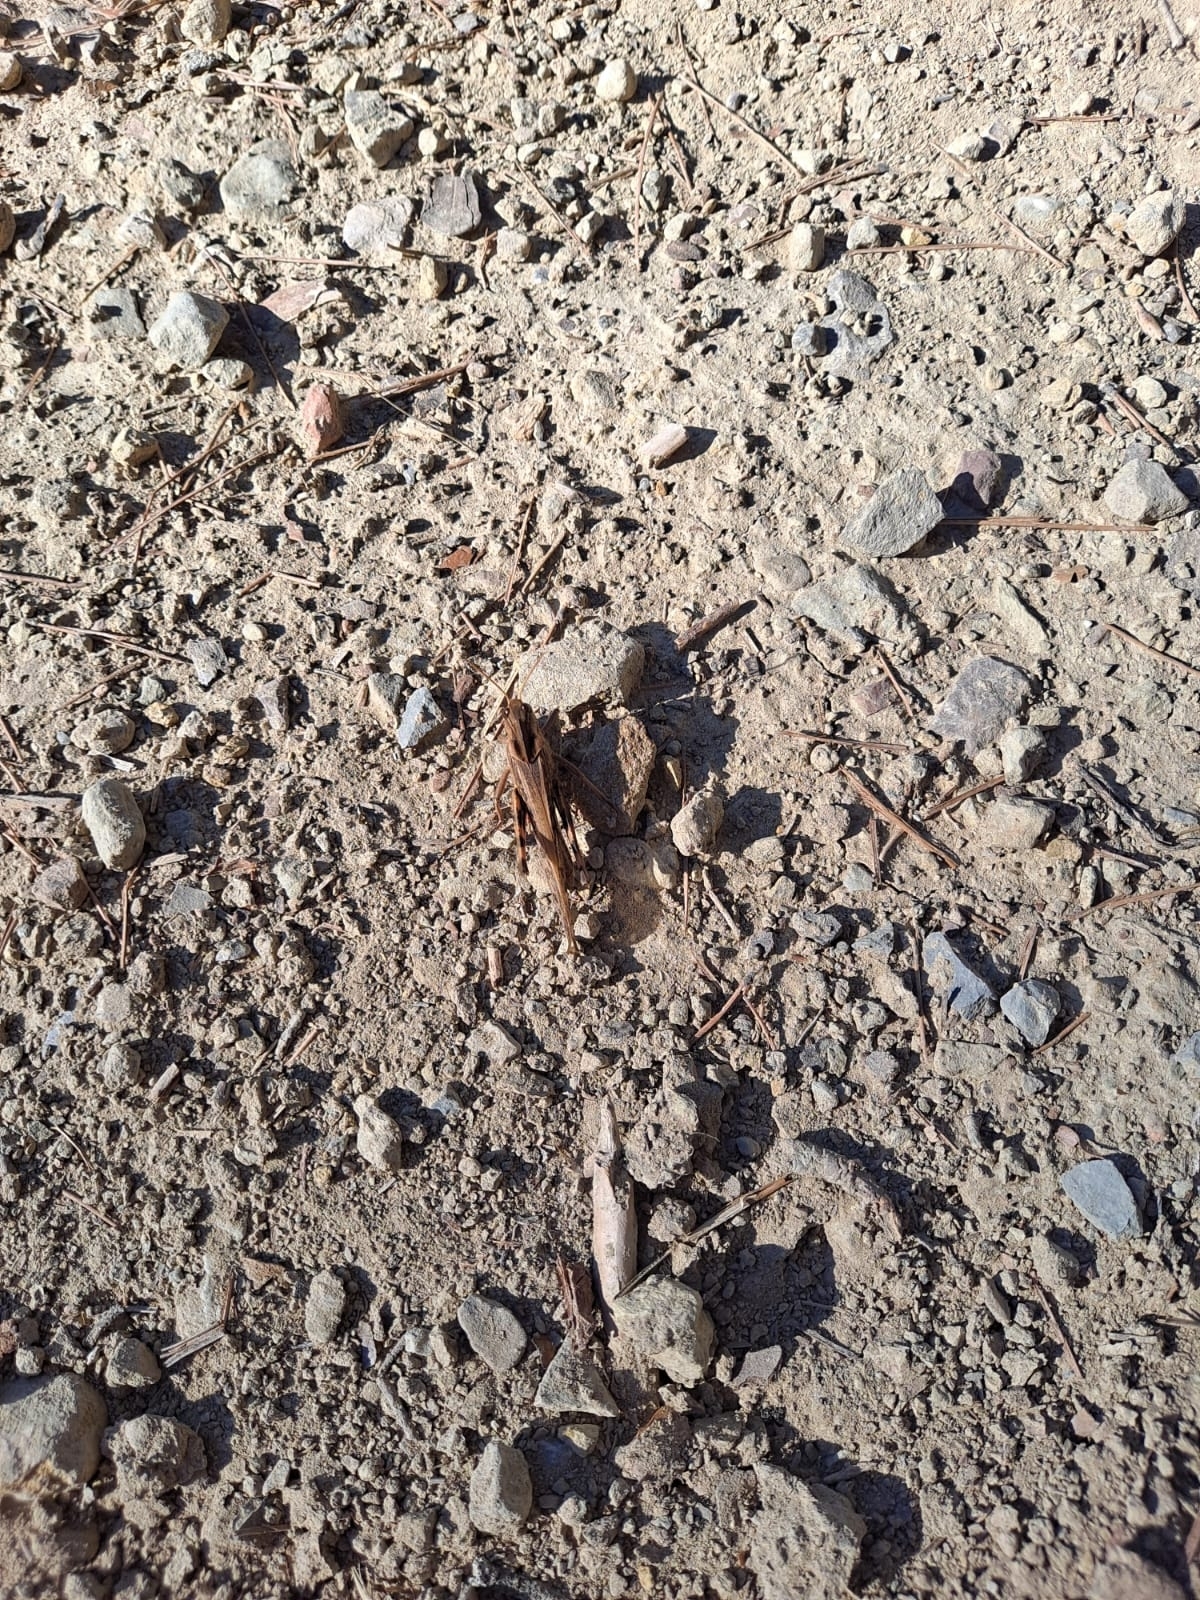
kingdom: Animalia
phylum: Arthropoda
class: Insecta
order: Orthoptera
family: Acrididae
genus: Locusta
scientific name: Locusta migratoria
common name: Migratory locust
